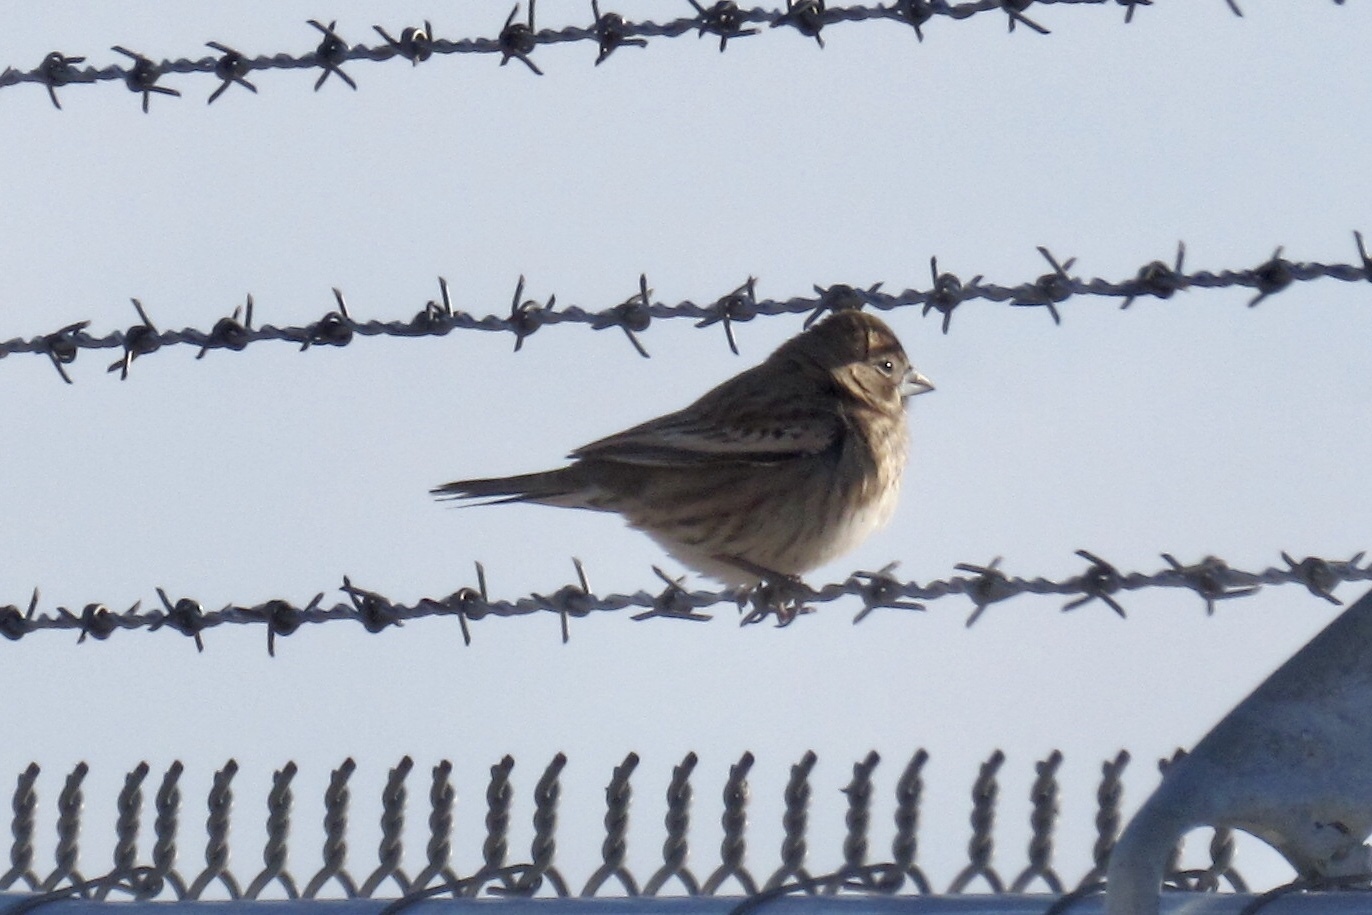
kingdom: Animalia
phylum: Chordata
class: Aves
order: Passeriformes
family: Passerellidae
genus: Calamospiza
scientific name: Calamospiza melanocorys
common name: Lark bunting
